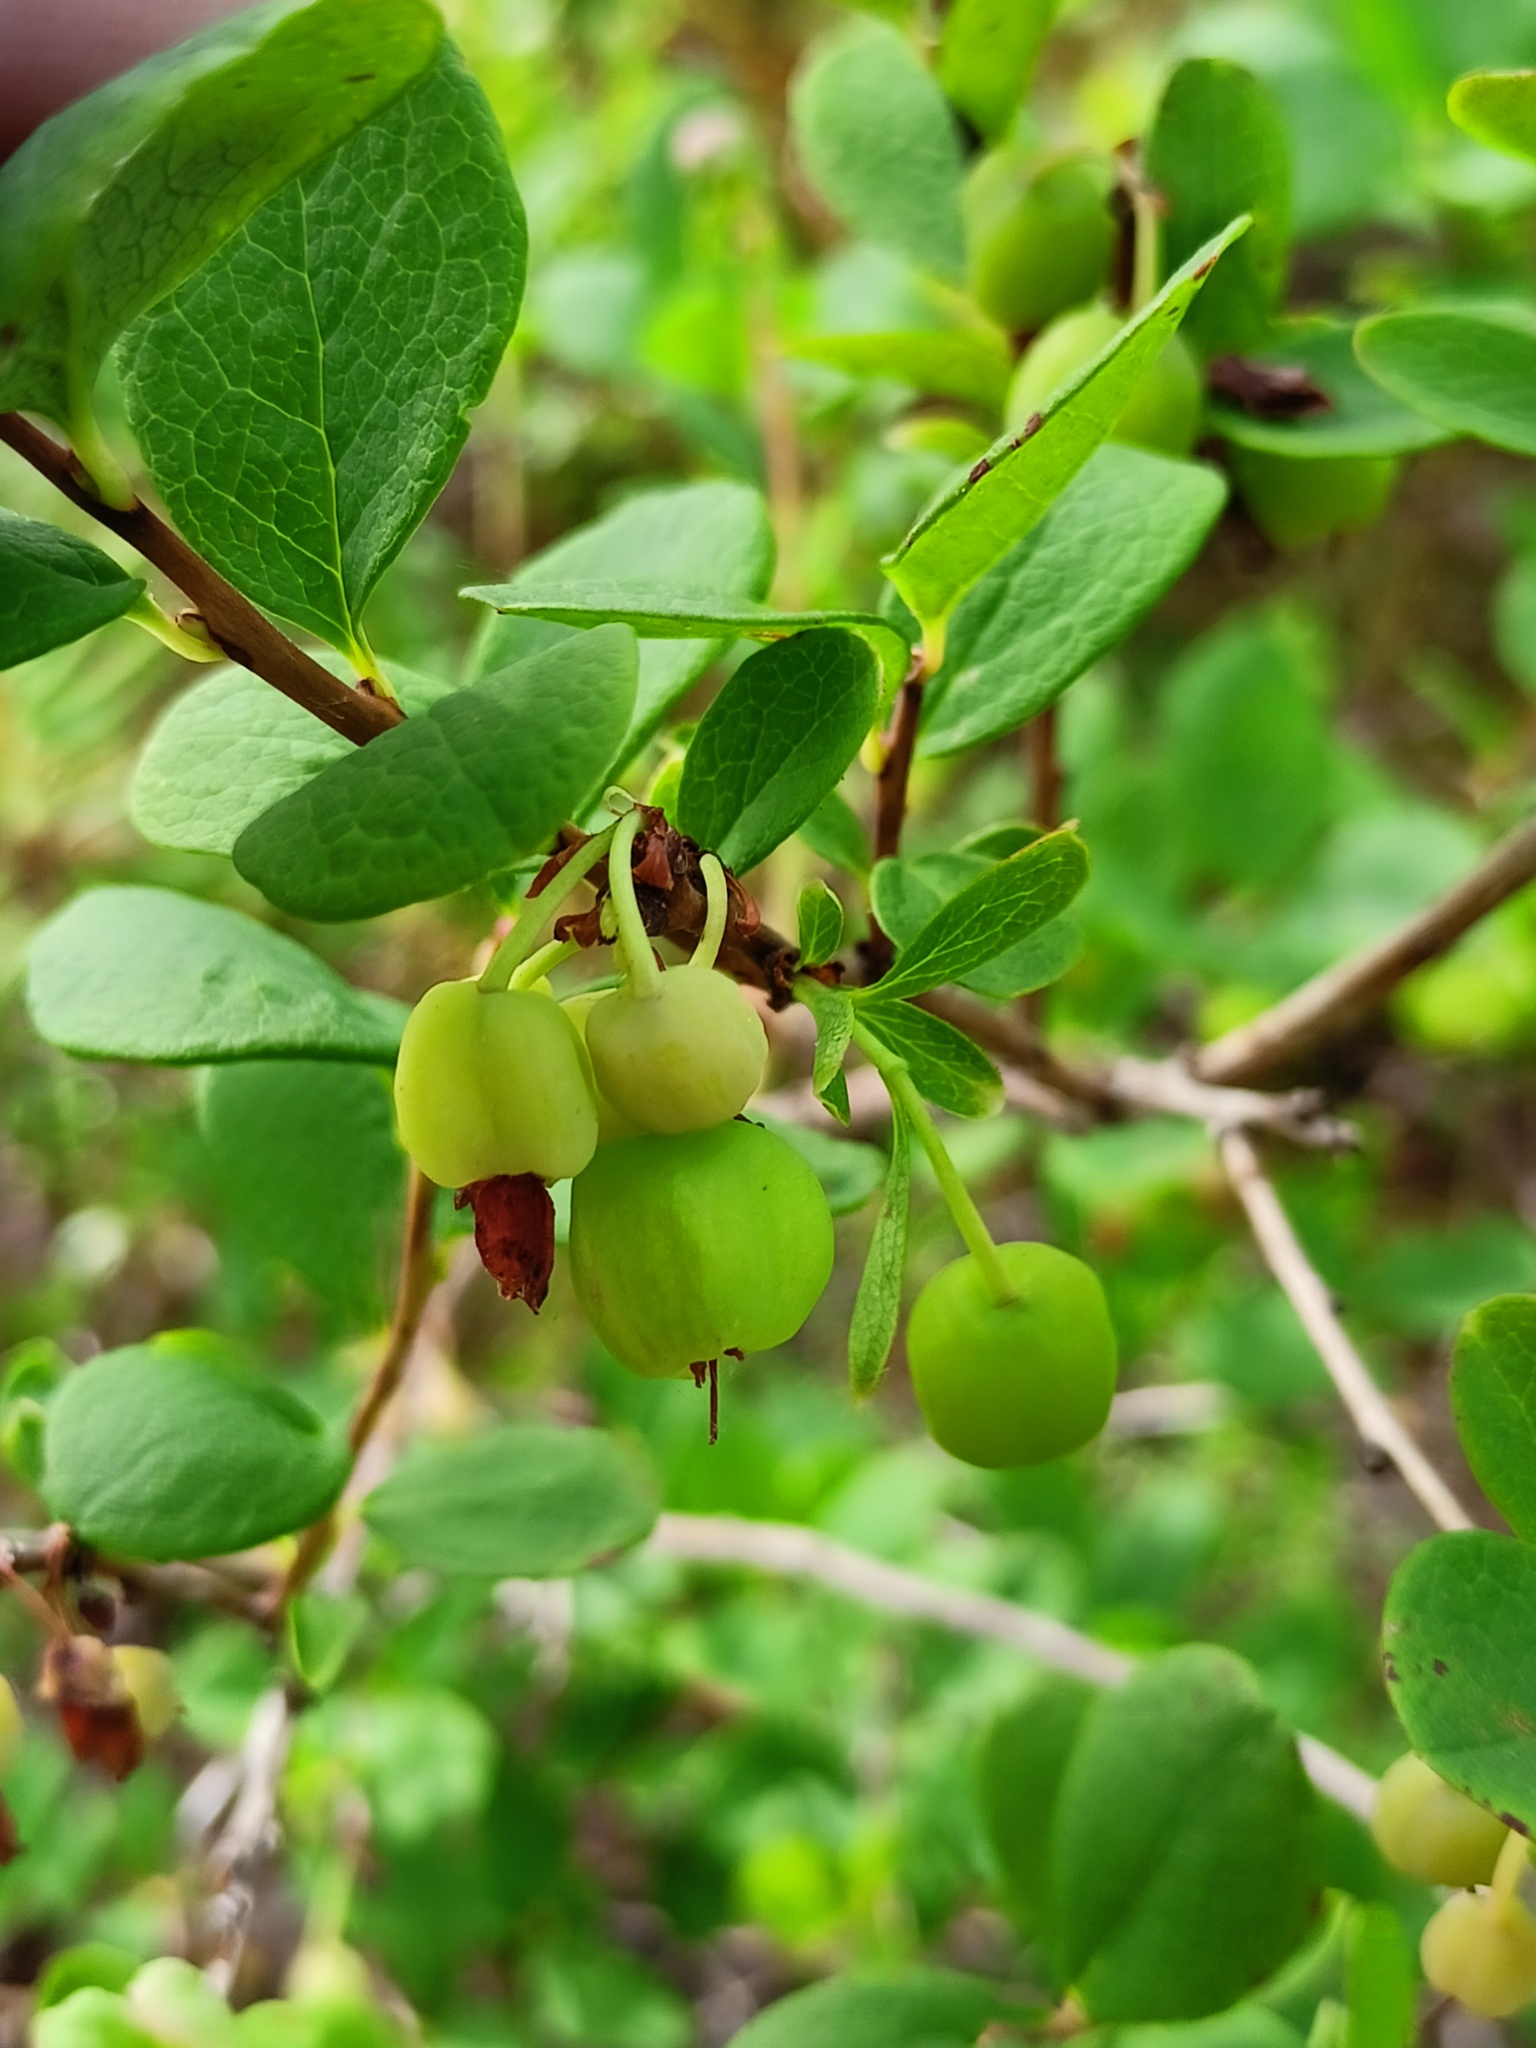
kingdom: Plantae
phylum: Tracheophyta
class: Magnoliopsida
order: Ericales
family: Ericaceae
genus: Vaccinium
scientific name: Vaccinium uliginosum
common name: Bog bilberry
